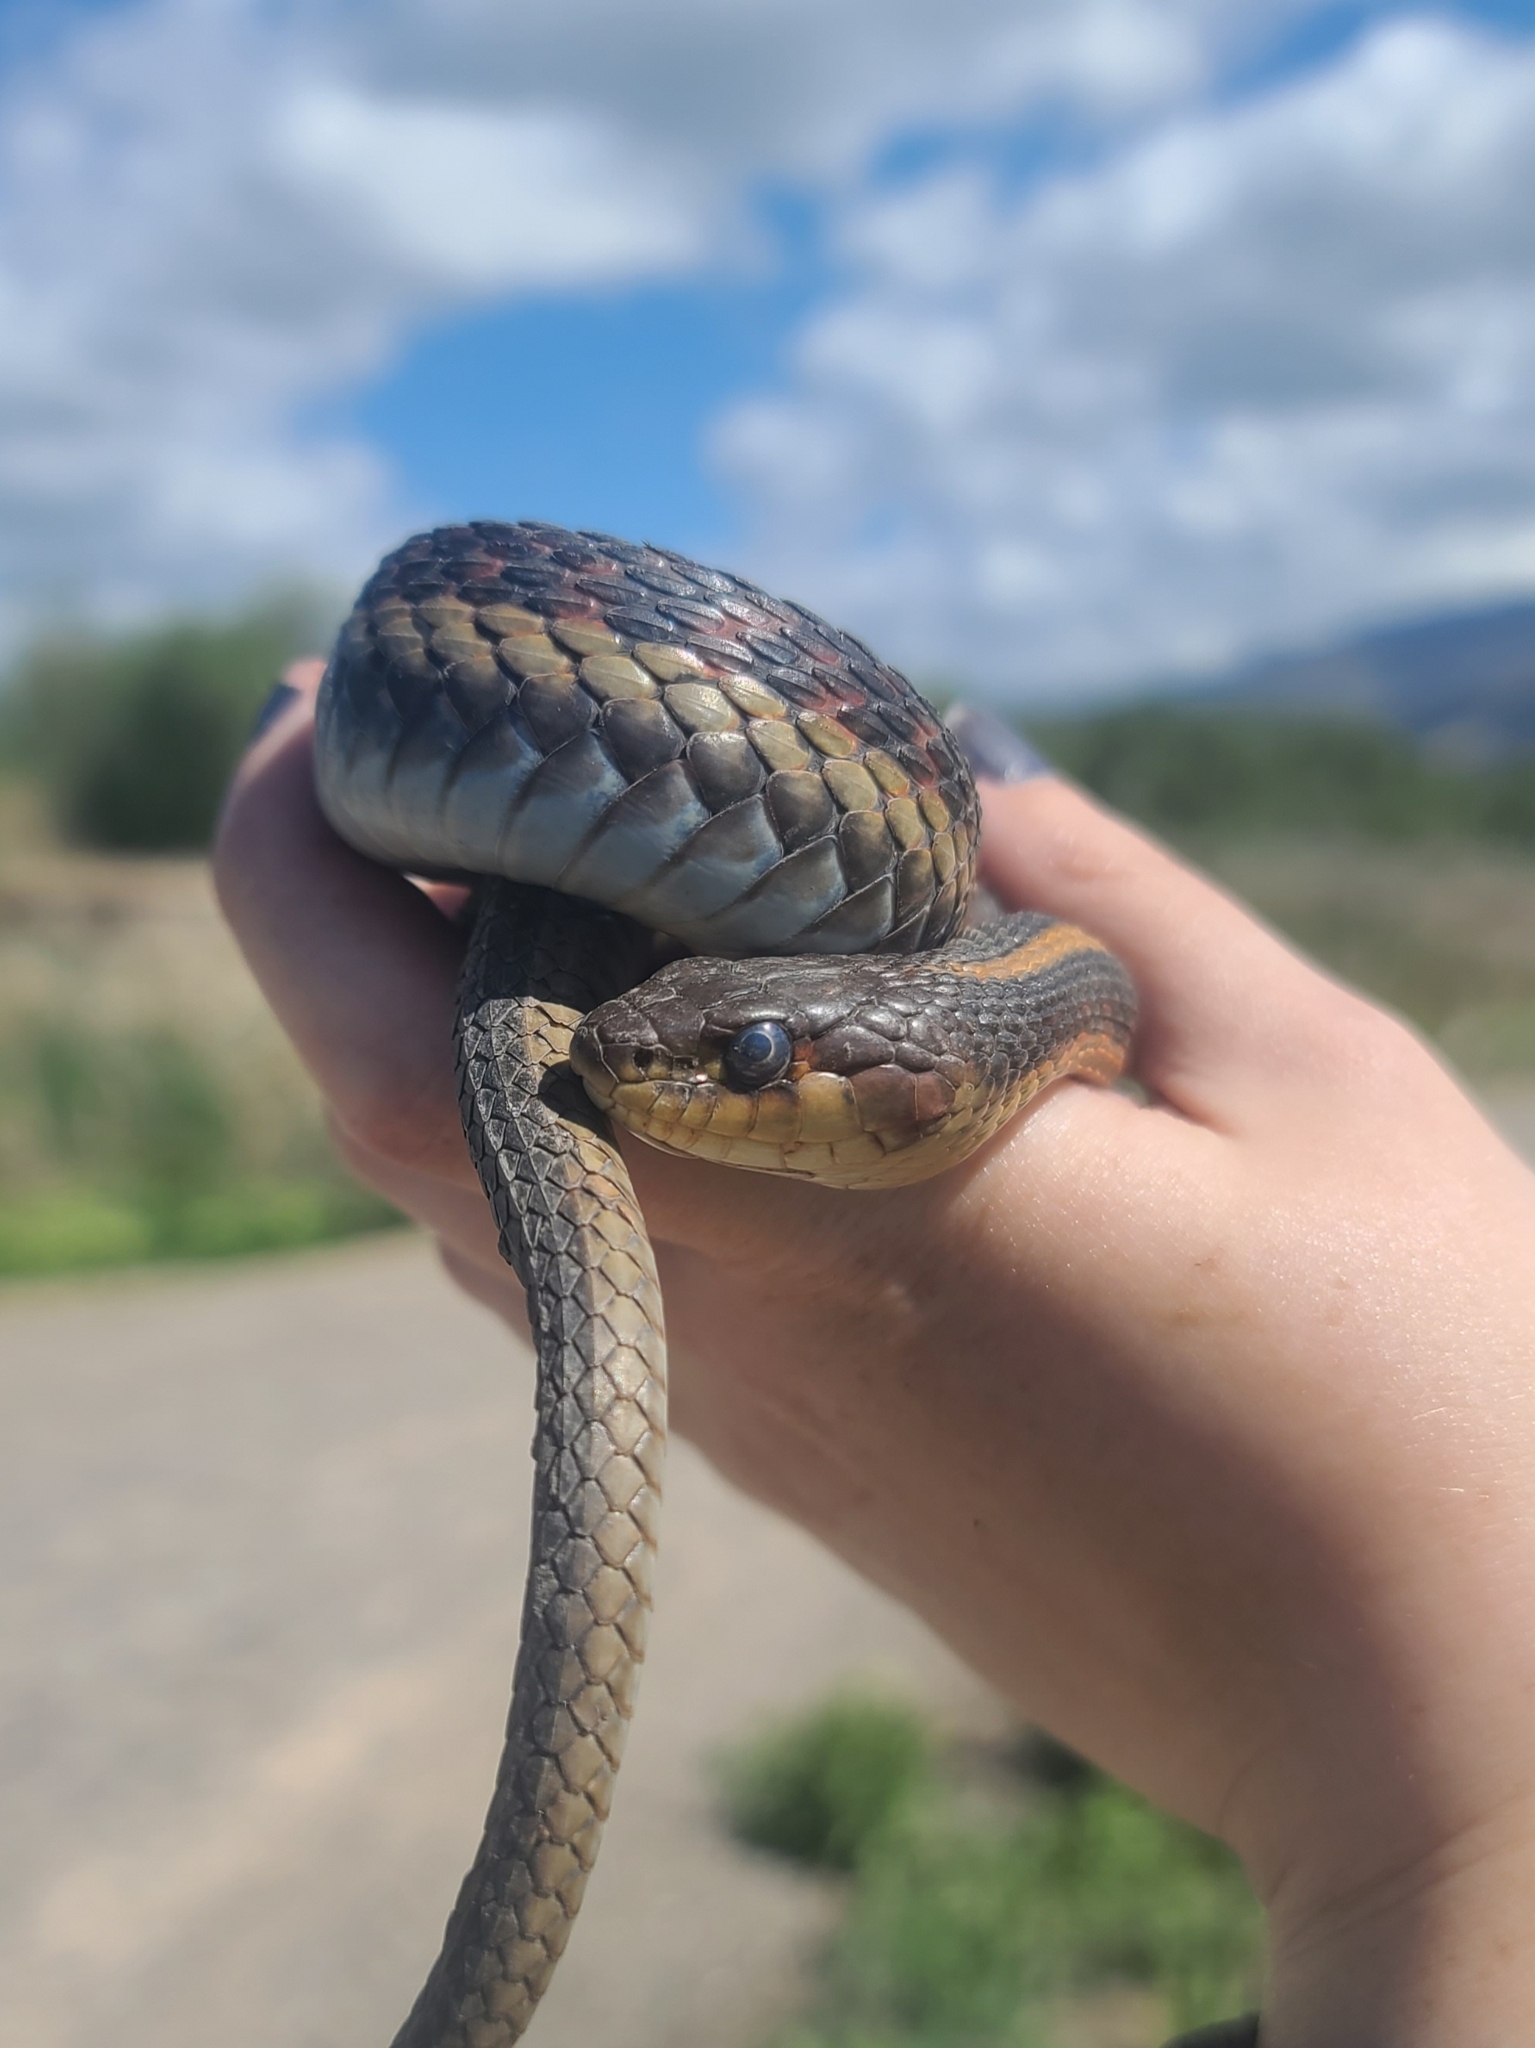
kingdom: Animalia
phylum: Chordata
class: Squamata
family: Colubridae
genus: Thamnophis
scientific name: Thamnophis sirtalis
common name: Common garter snake
